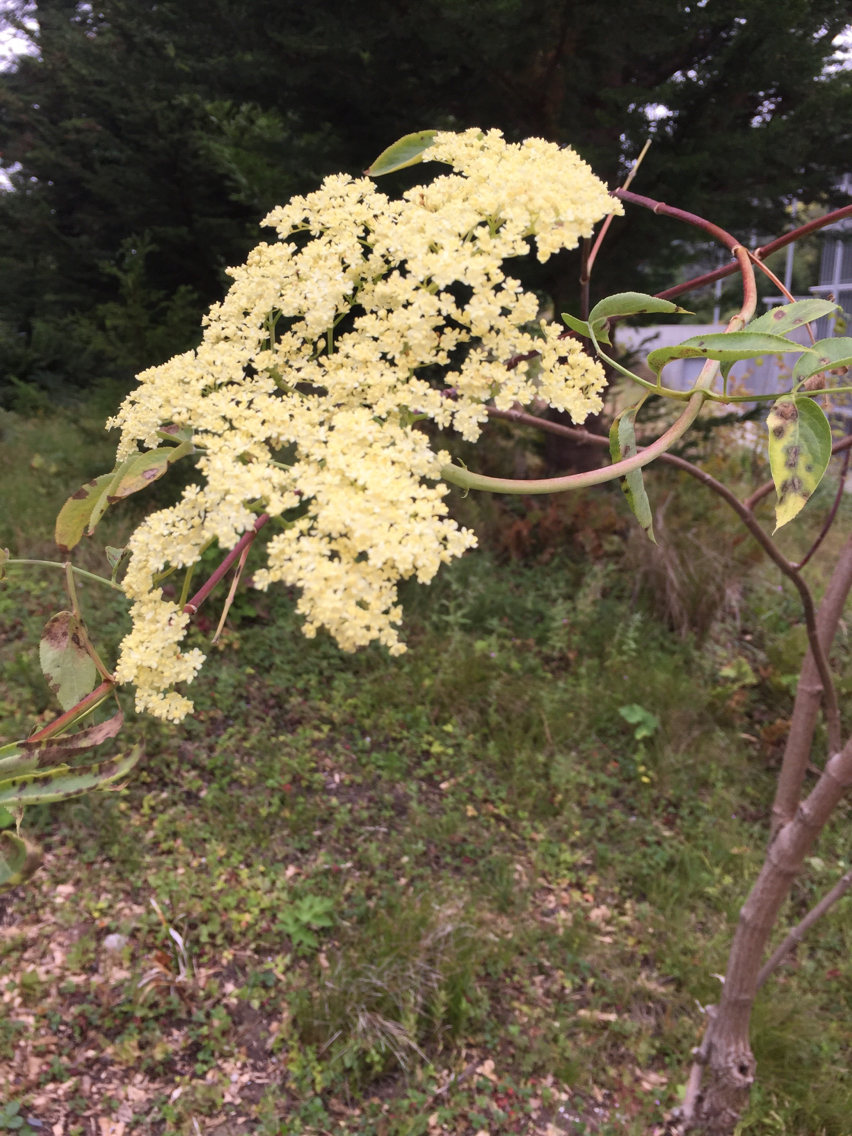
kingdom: Plantae
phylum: Tracheophyta
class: Magnoliopsida
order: Dipsacales
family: Viburnaceae
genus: Sambucus
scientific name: Sambucus cerulea
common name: Blue elder
